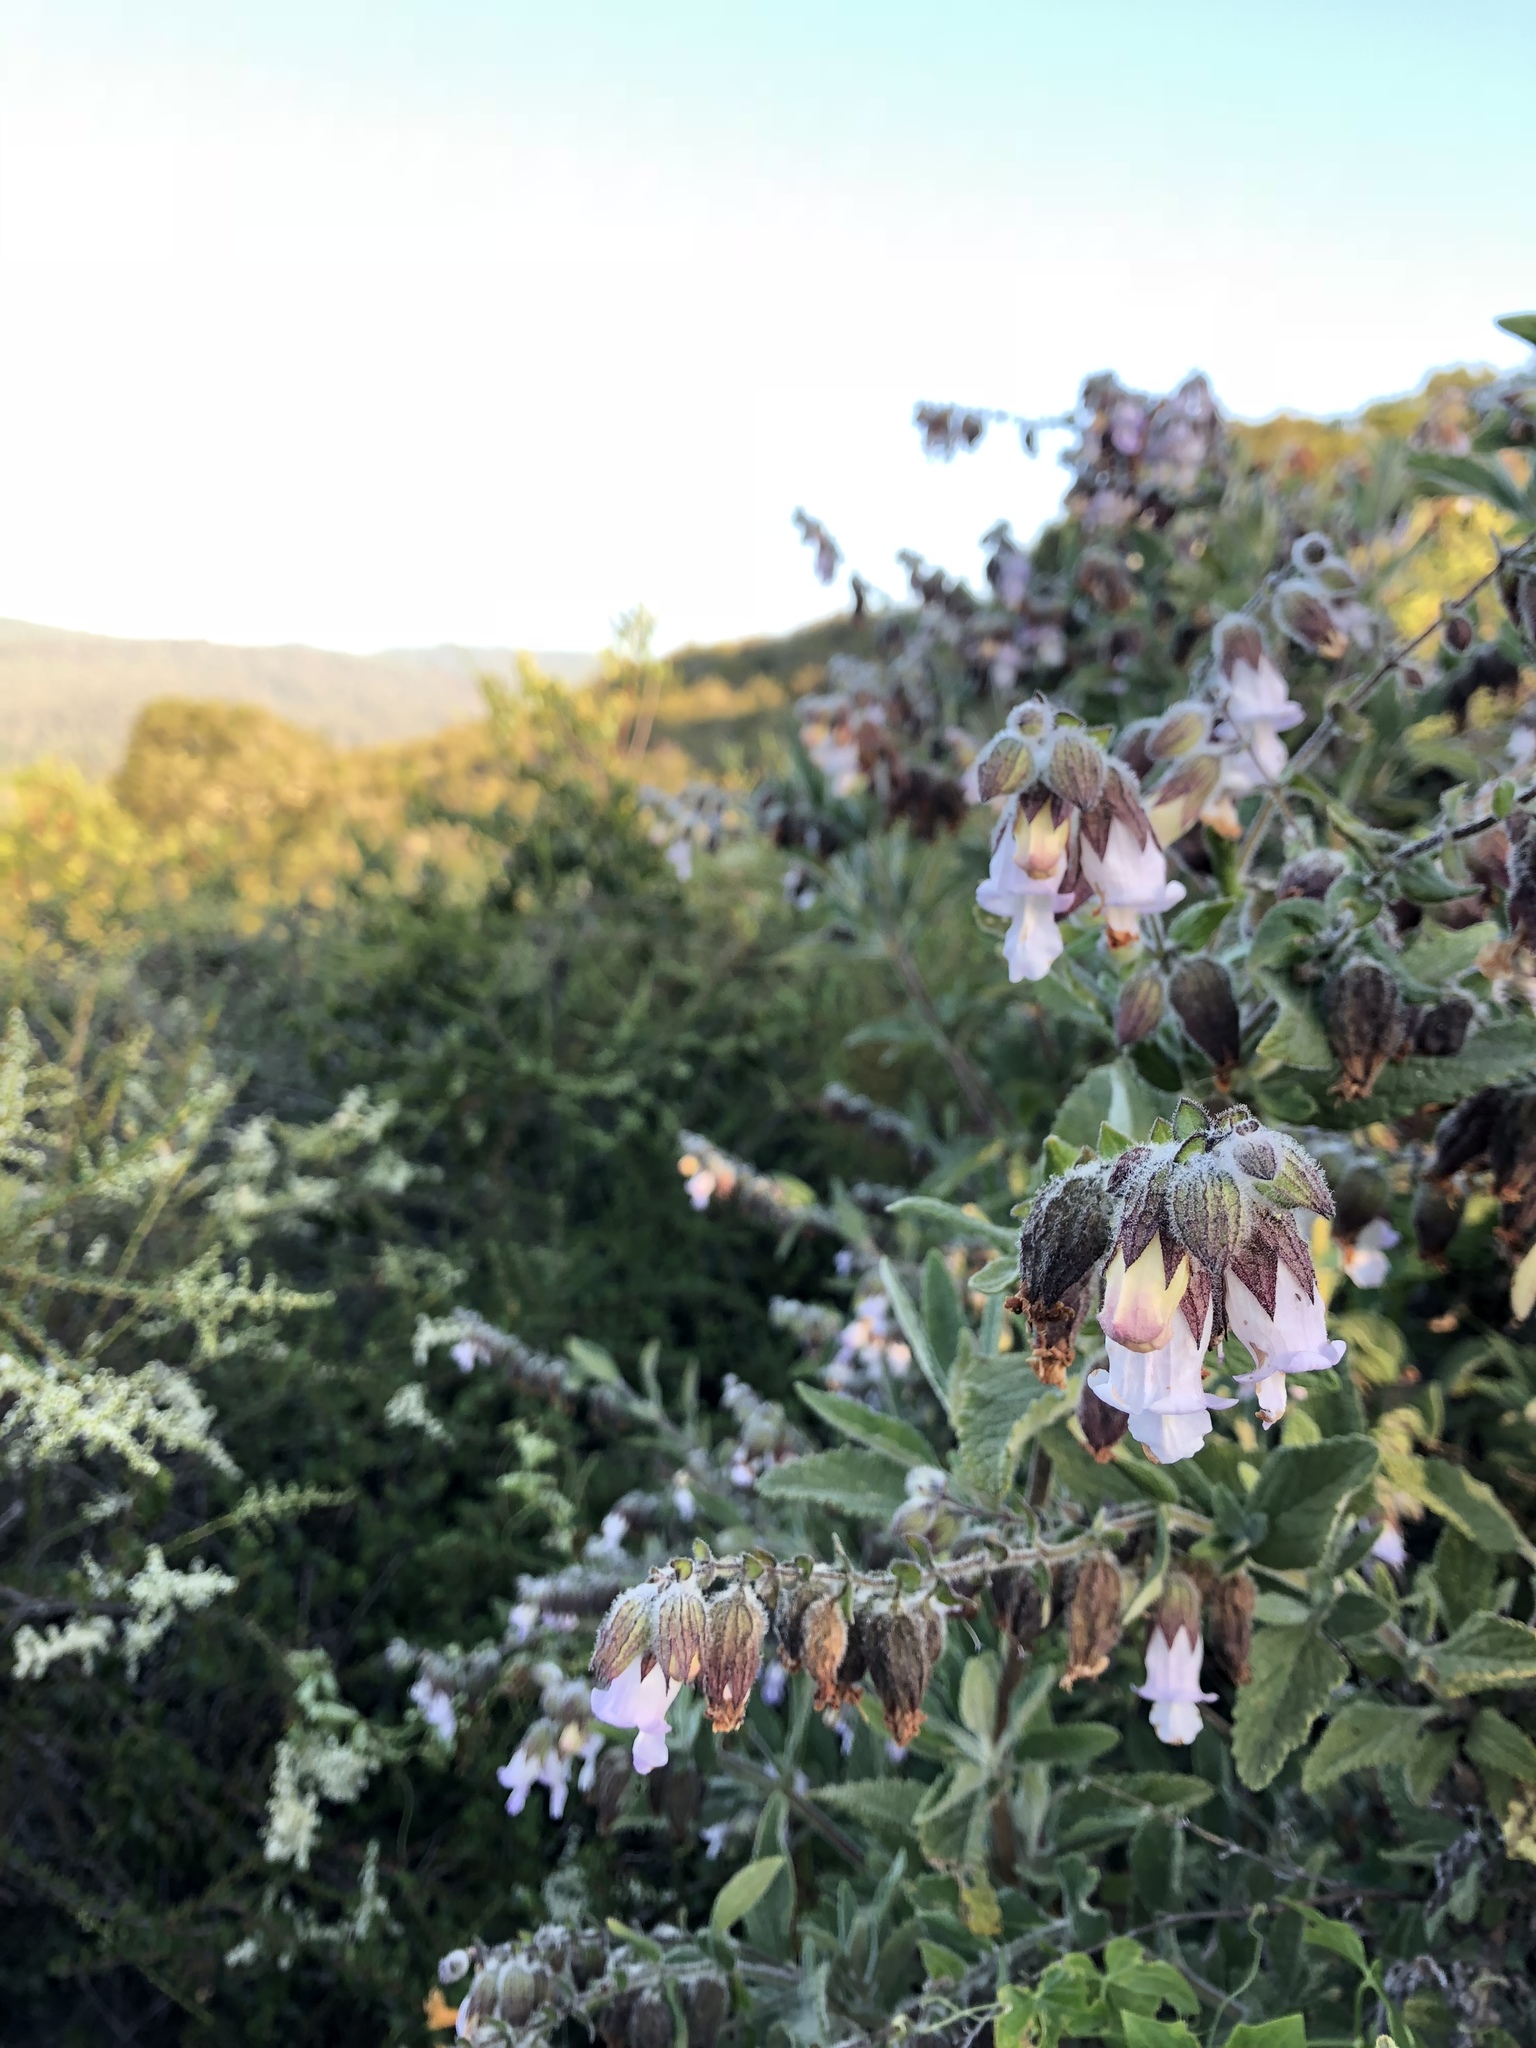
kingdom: Plantae
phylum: Tracheophyta
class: Magnoliopsida
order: Lamiales
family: Lamiaceae
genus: Lepechinia
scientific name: Lepechinia calycina
